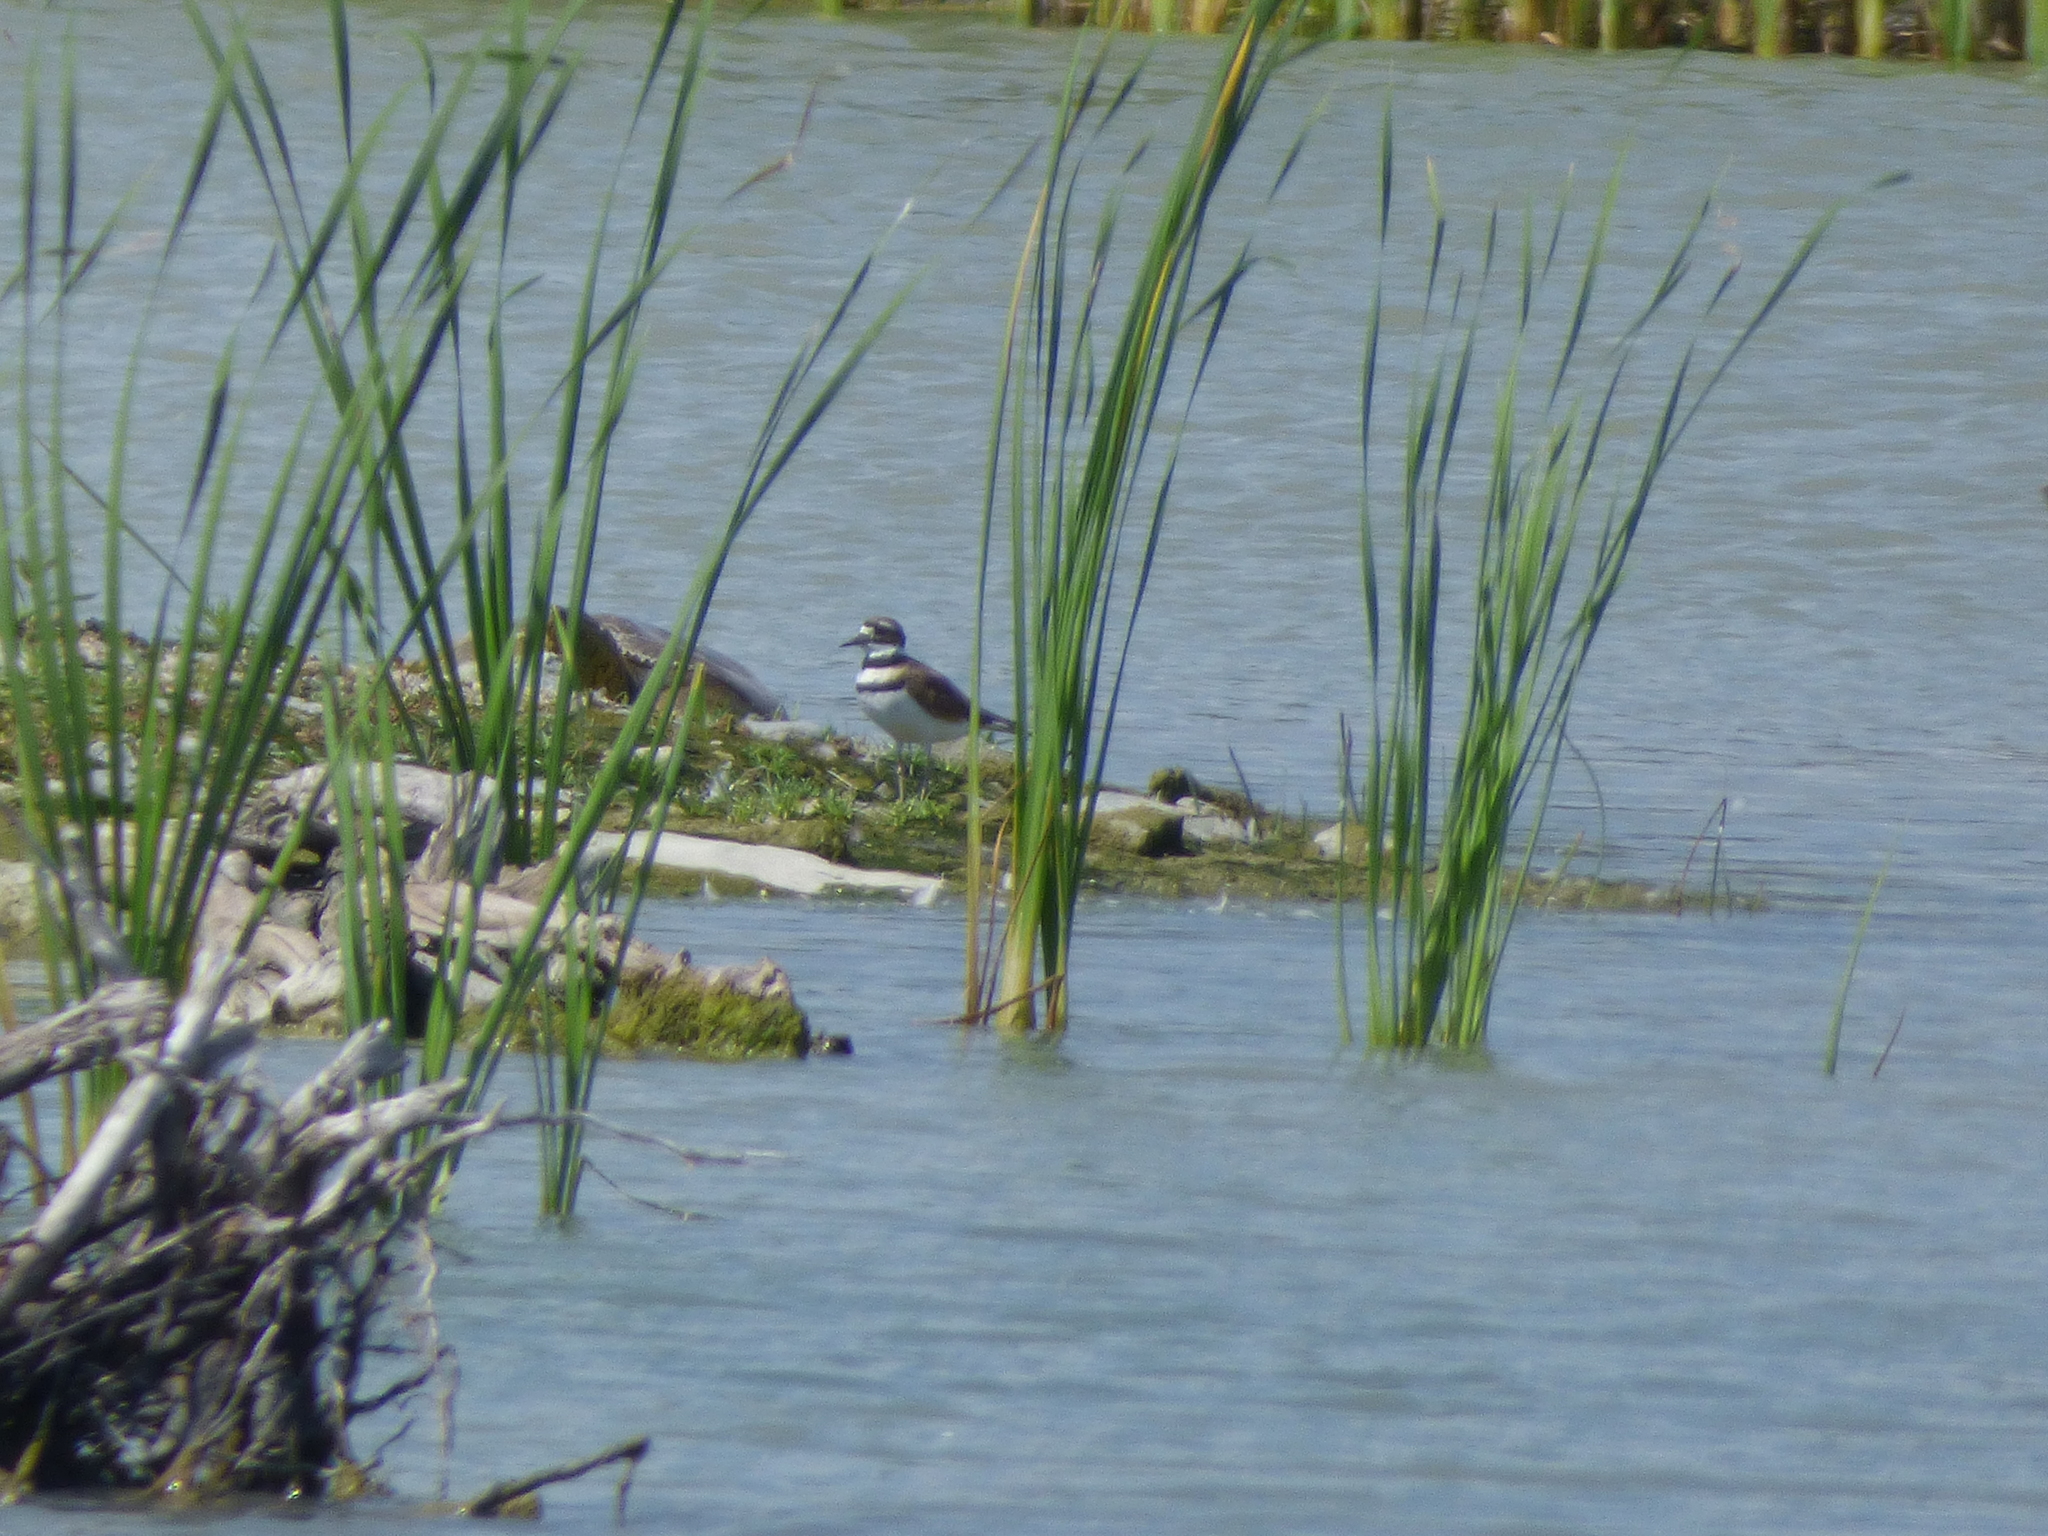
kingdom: Animalia
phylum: Chordata
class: Testudines
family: Trionychidae
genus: Apalone
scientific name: Apalone spinifera
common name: Spiny softshell turtle
